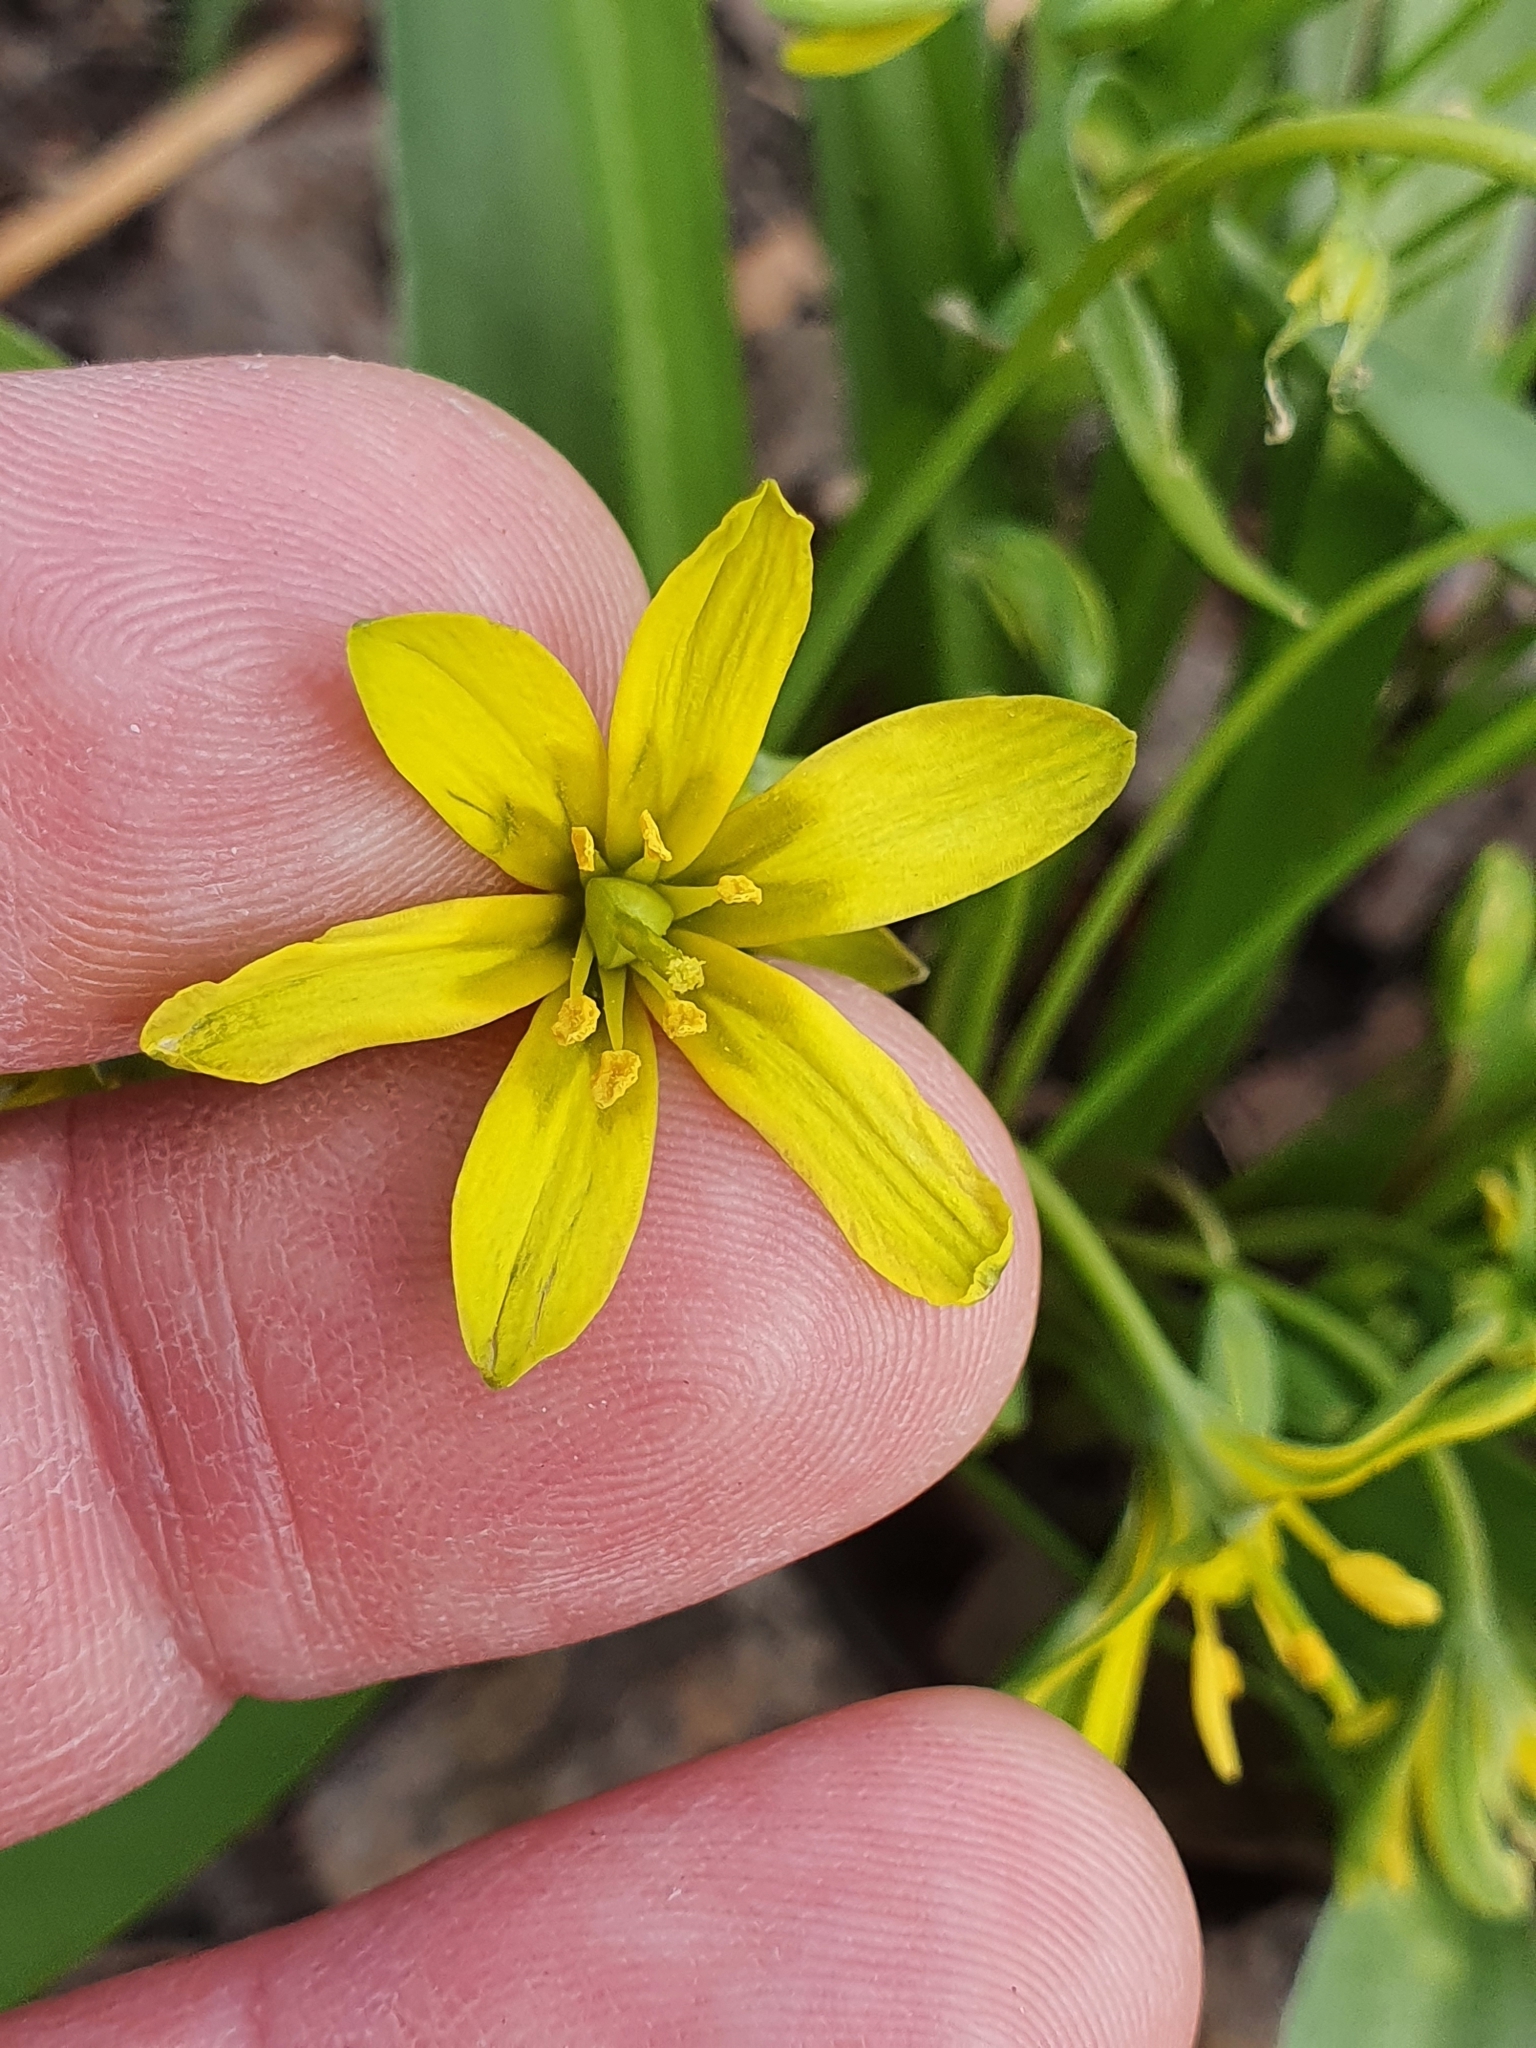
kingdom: Plantae
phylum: Tracheophyta
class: Liliopsida
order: Liliales
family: Liliaceae
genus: Gagea
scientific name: Gagea lutea
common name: Yellow star-of-bethlehem
